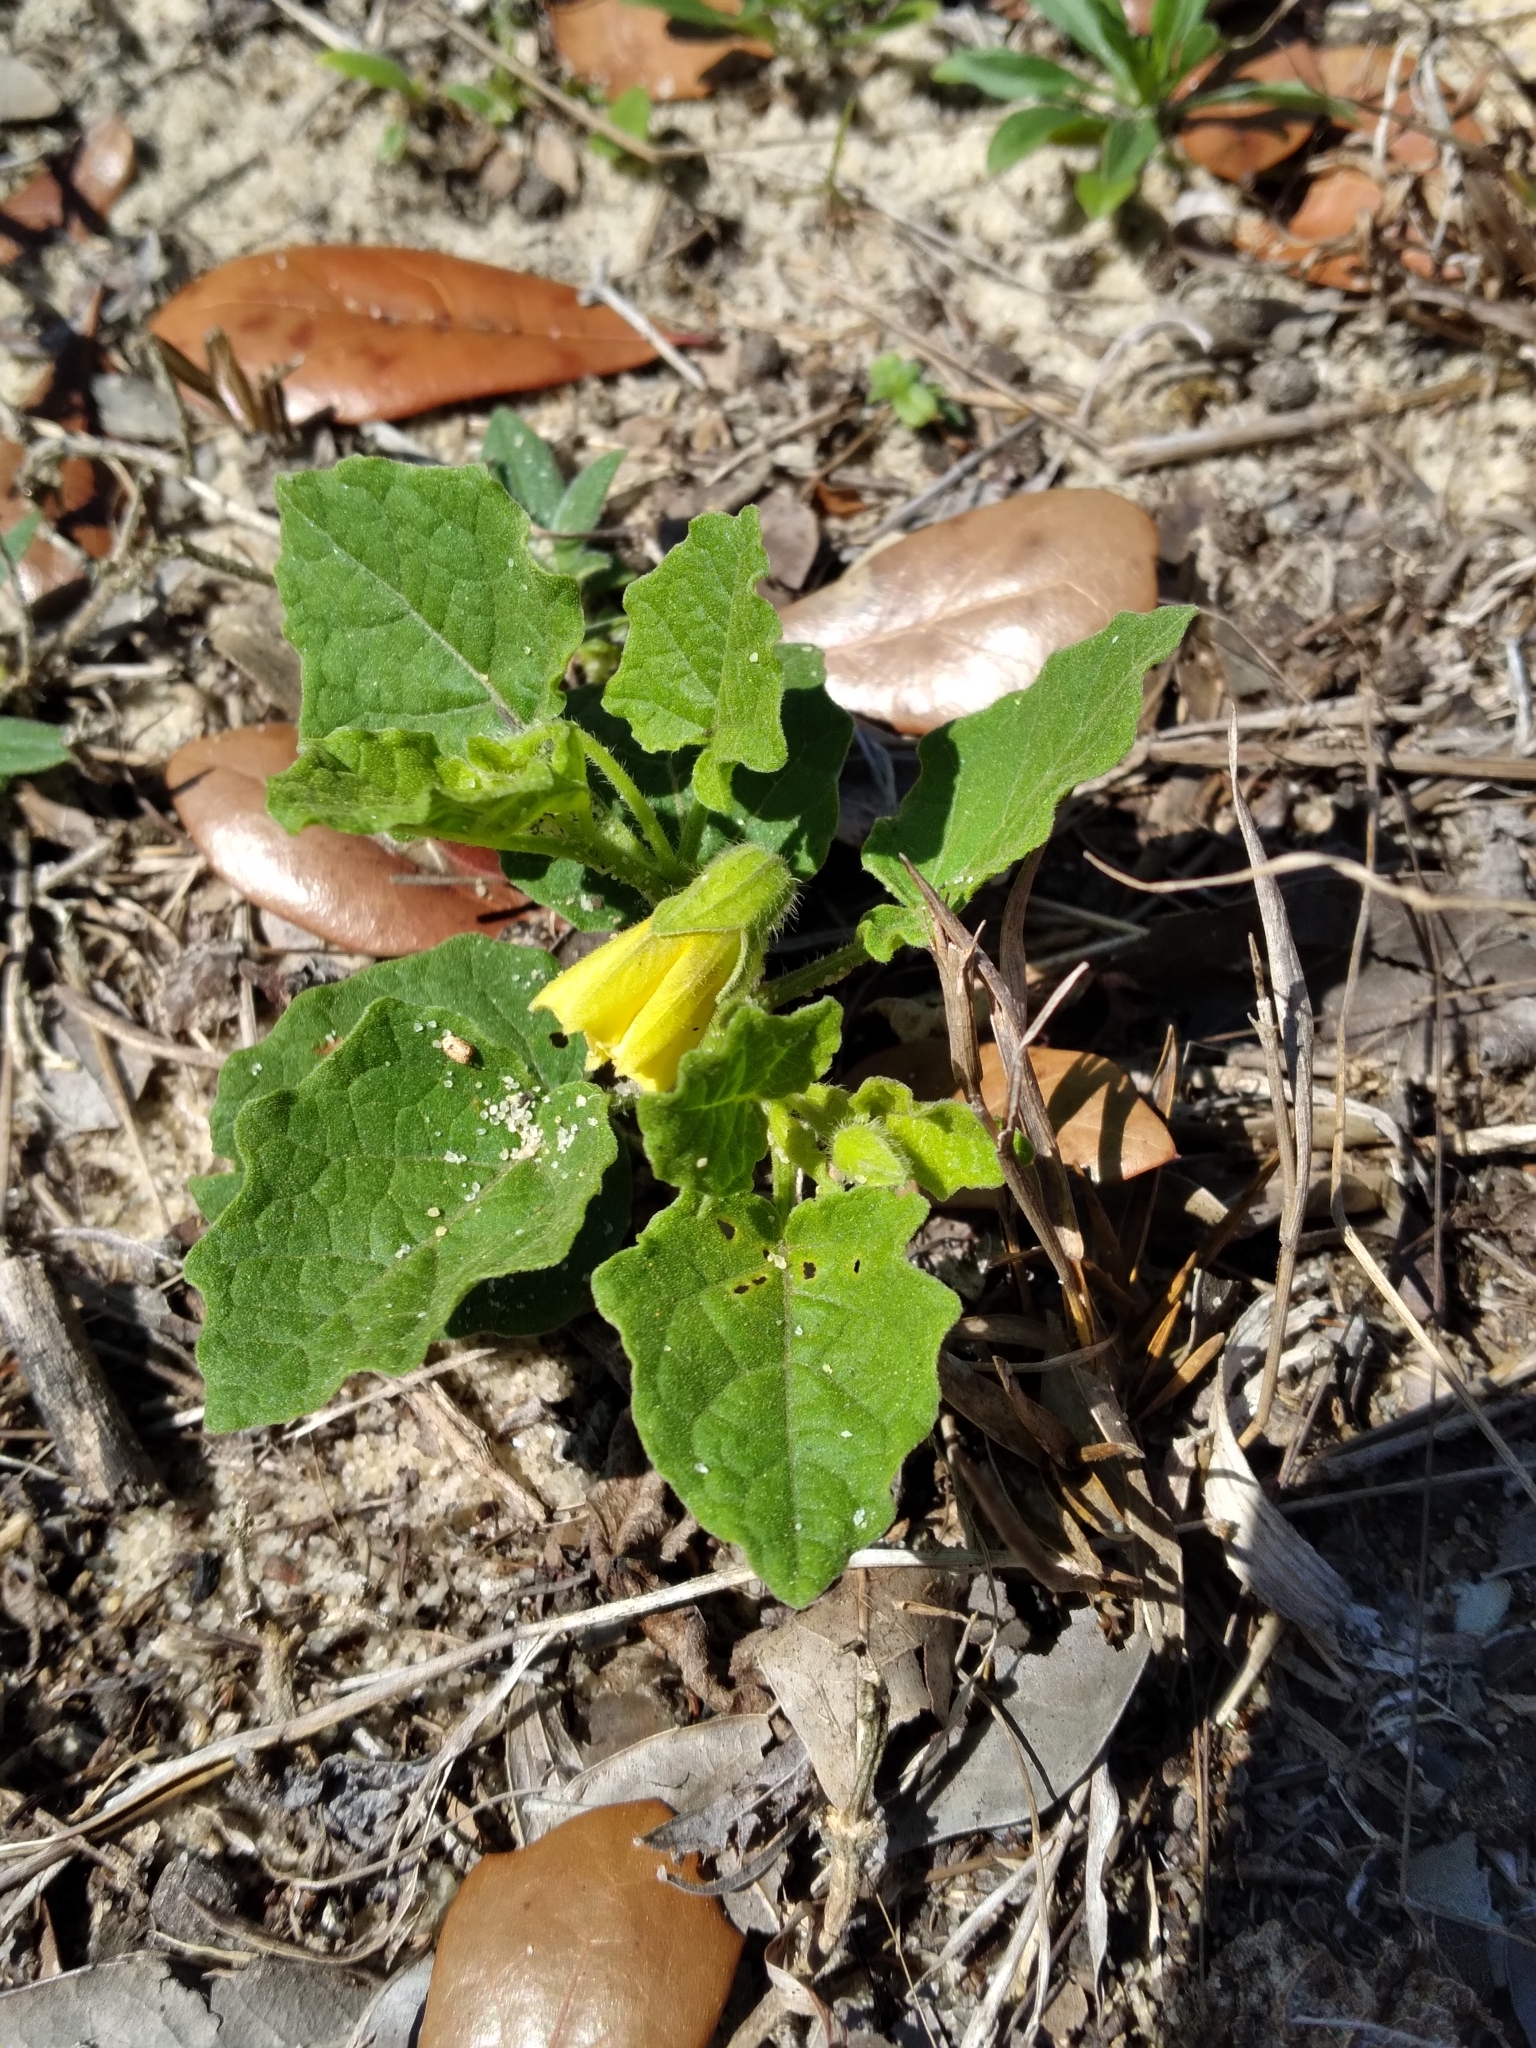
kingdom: Plantae
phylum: Tracheophyta
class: Magnoliopsida
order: Solanales
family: Solanaceae
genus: Physalis
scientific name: Physalis arenicola
